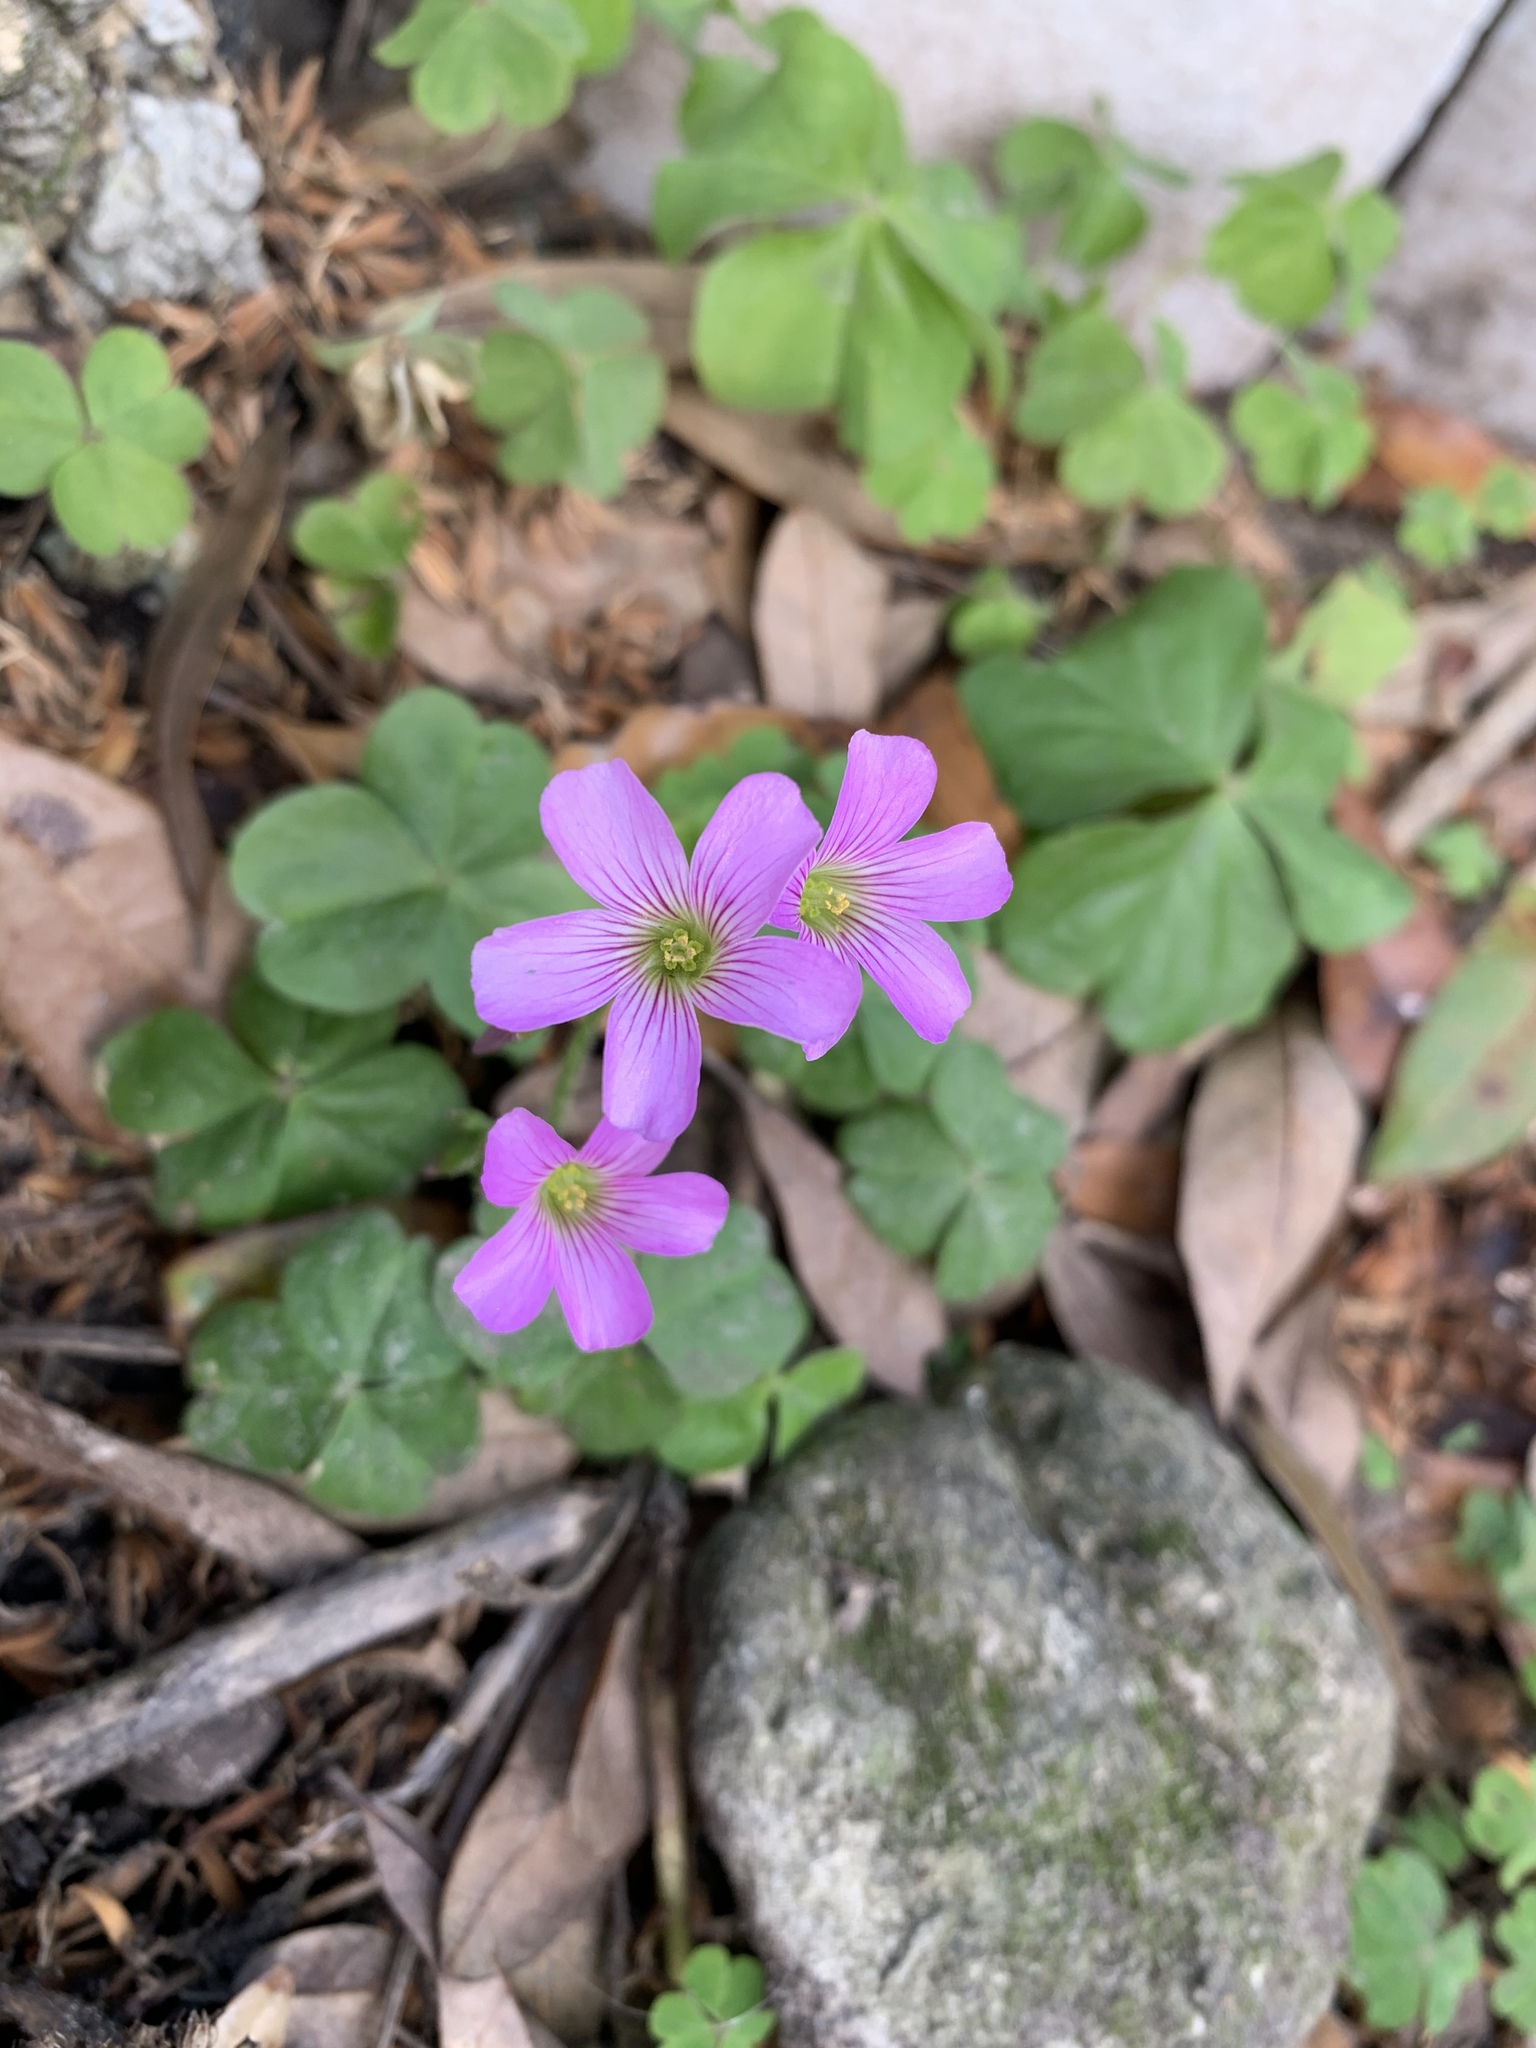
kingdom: Plantae
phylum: Tracheophyta
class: Magnoliopsida
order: Oxalidales
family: Oxalidaceae
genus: Oxalis
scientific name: Oxalis debilis
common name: Large-flowered pink-sorrel
